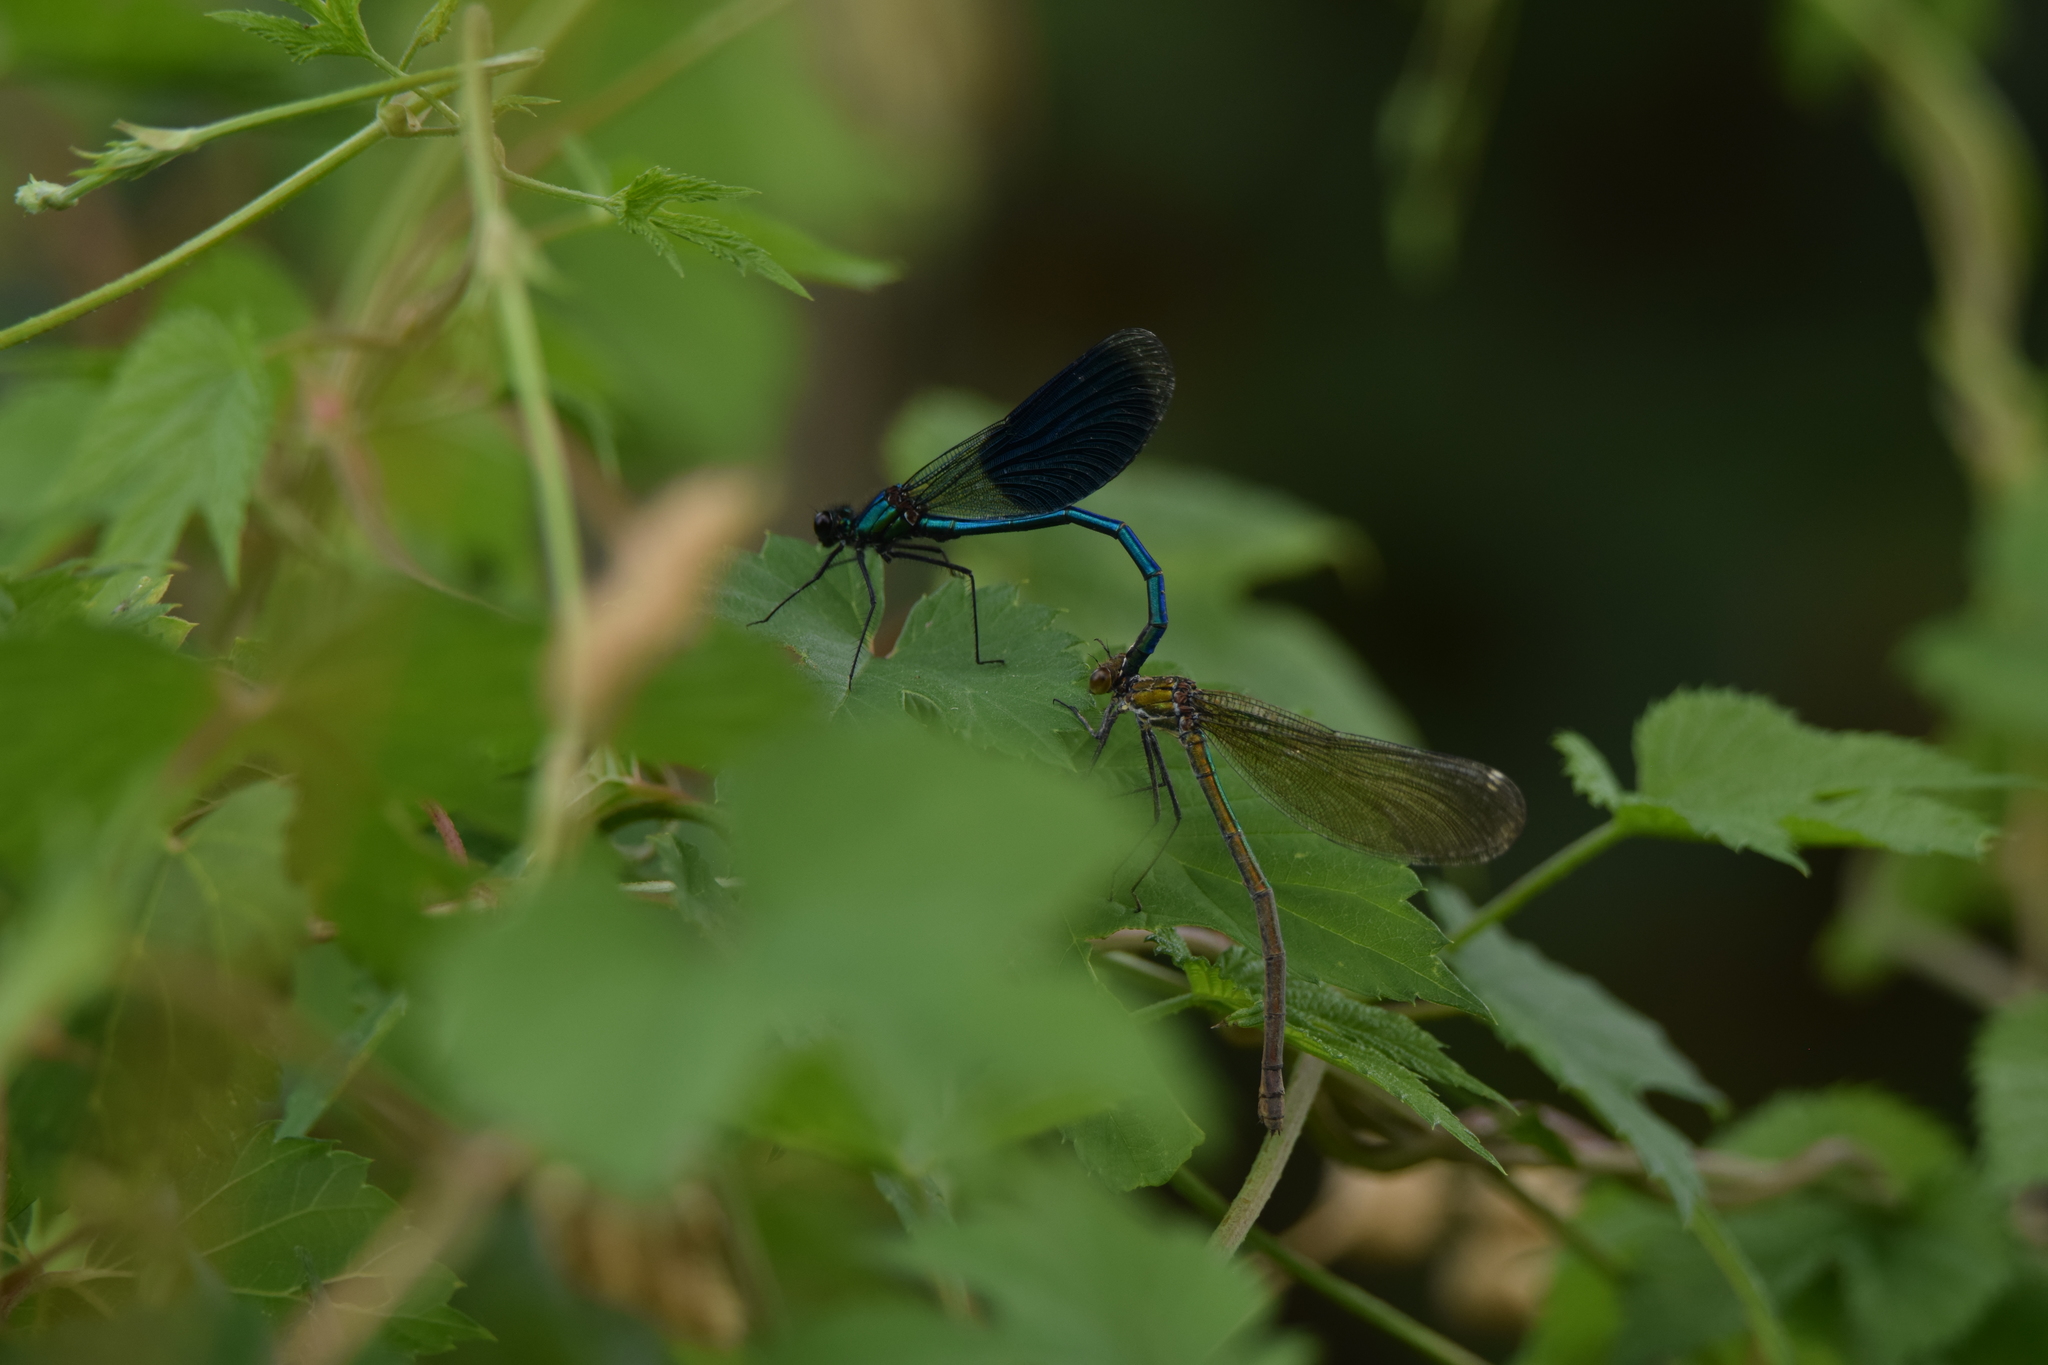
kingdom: Animalia
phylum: Arthropoda
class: Insecta
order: Odonata
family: Calopterygidae
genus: Calopteryx
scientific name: Calopteryx splendens
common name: Banded demoiselle
